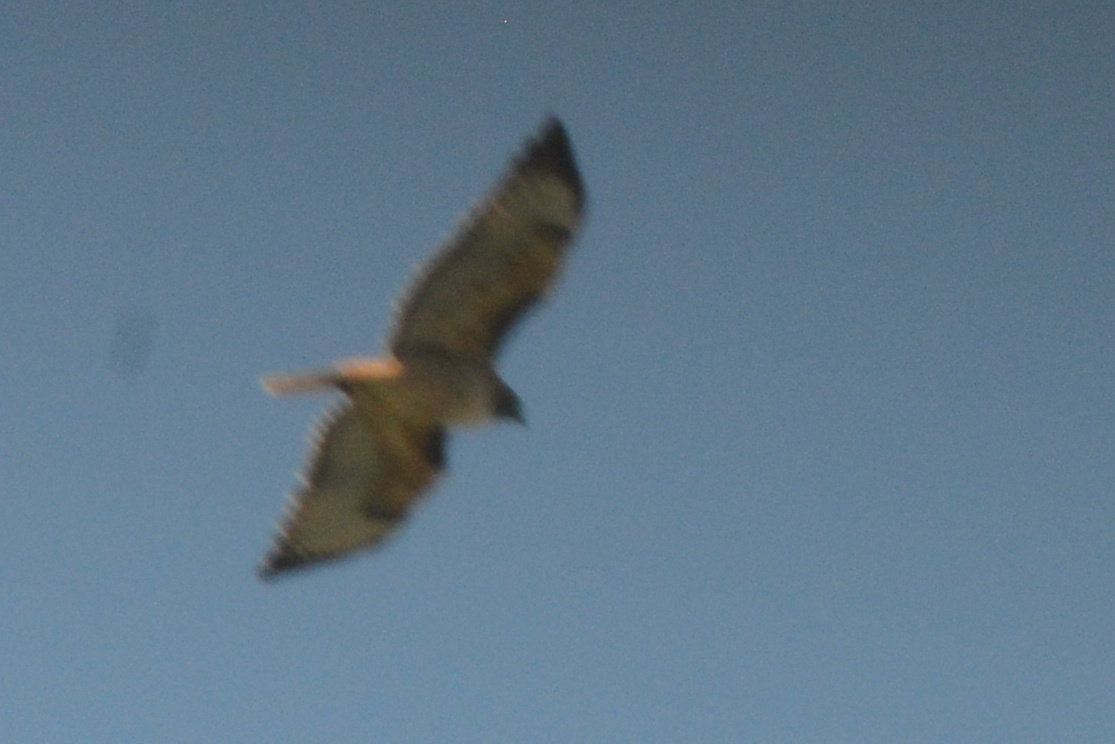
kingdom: Animalia
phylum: Chordata
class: Aves
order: Accipitriformes
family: Accipitridae
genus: Buteo
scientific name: Buteo jamaicensis
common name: Red-tailed hawk
